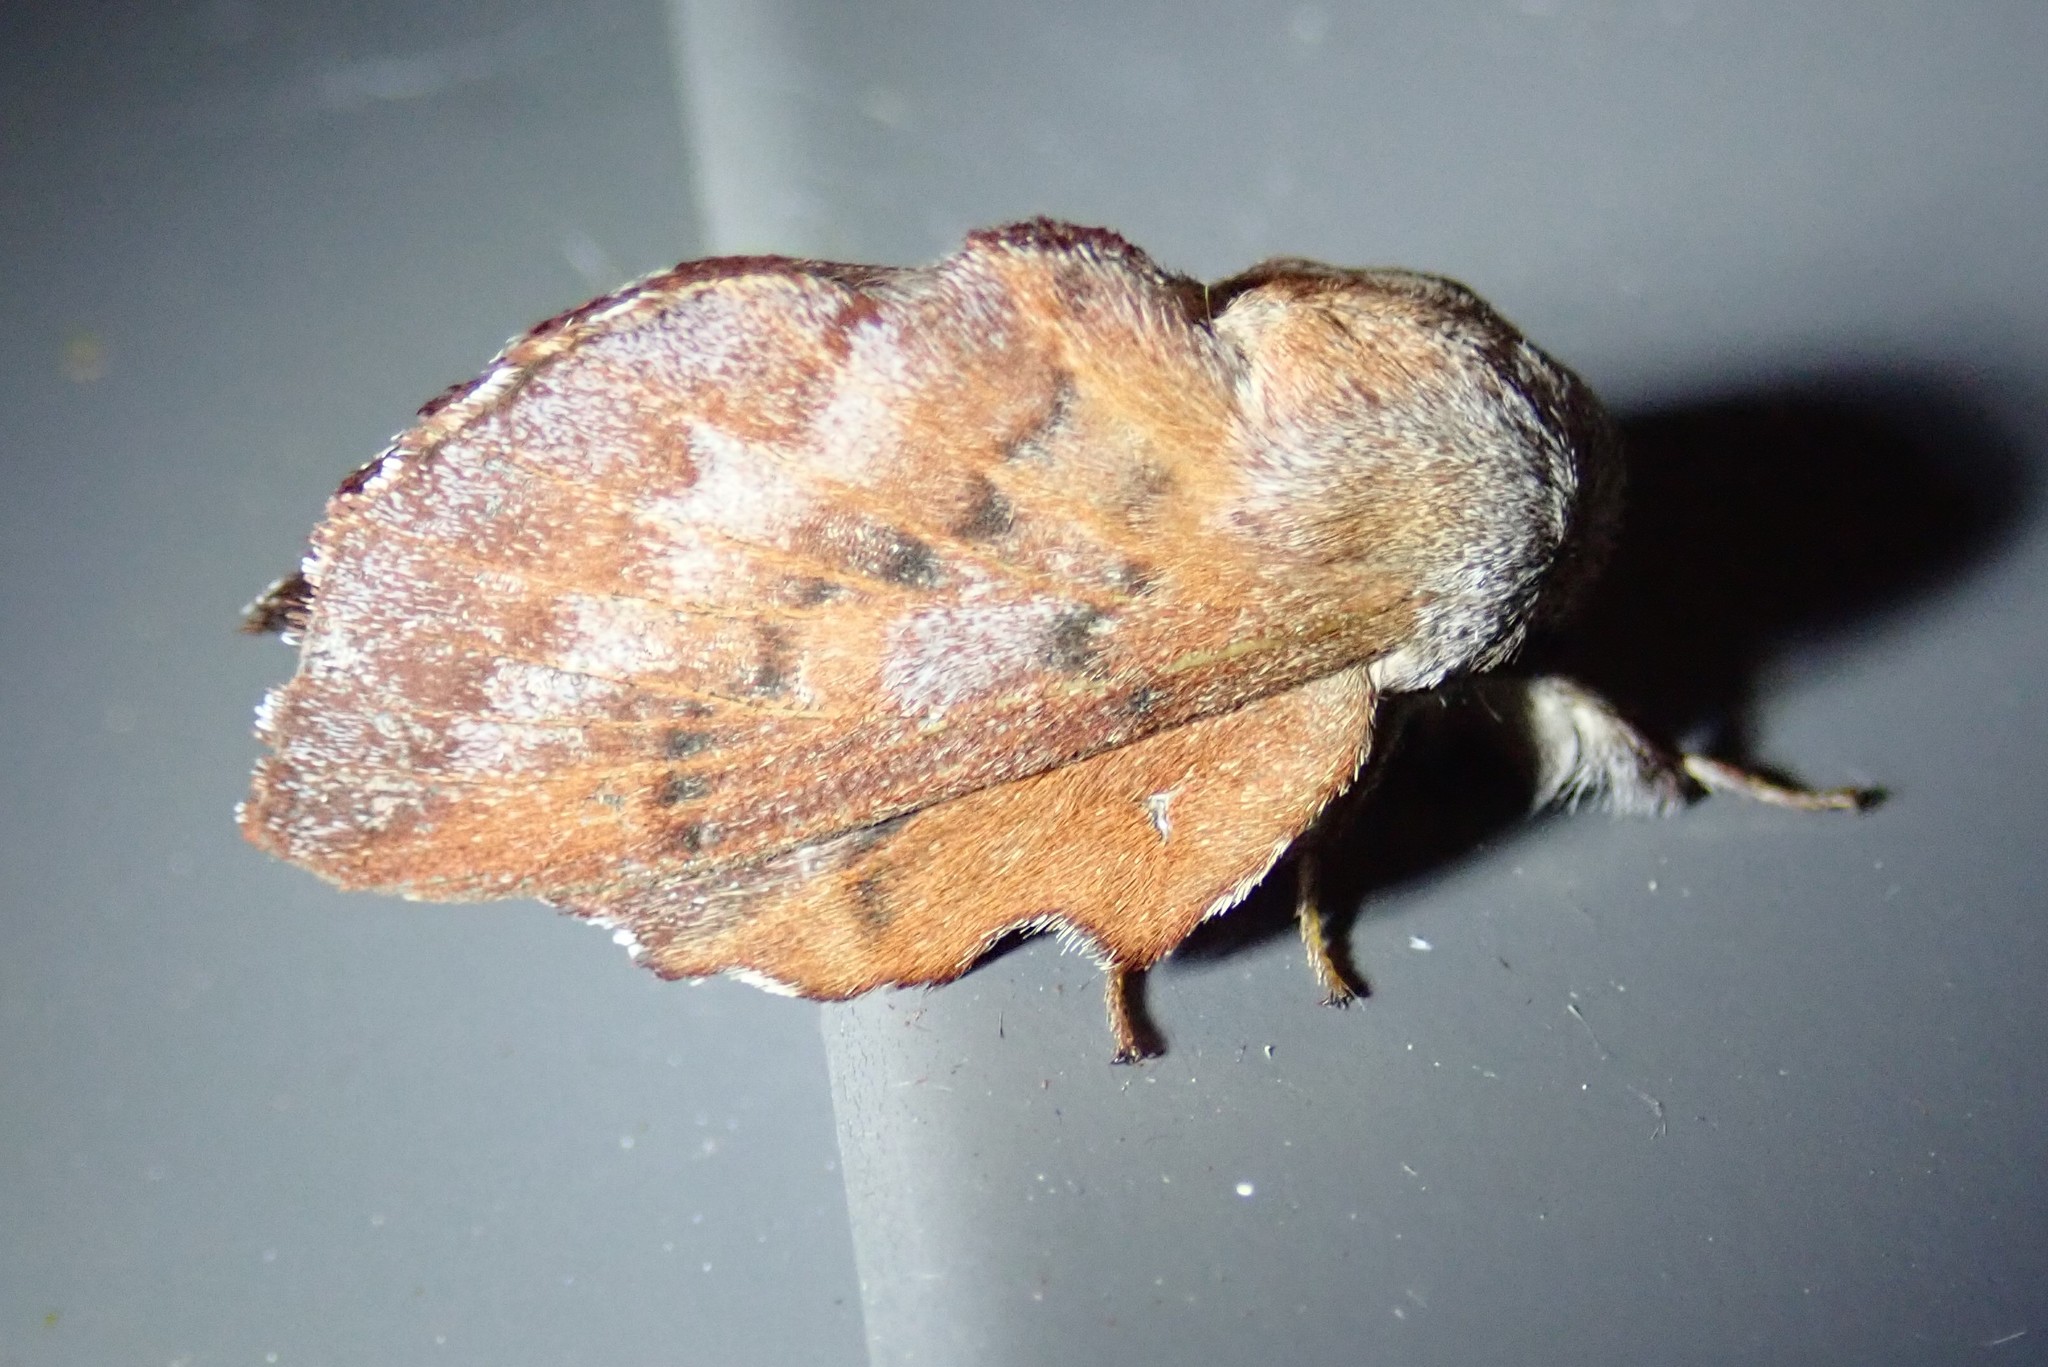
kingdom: Animalia
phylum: Arthropoda
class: Insecta
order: Lepidoptera
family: Lasiocampidae
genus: Phyllodesma
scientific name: Phyllodesma americana
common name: American lappet moth
